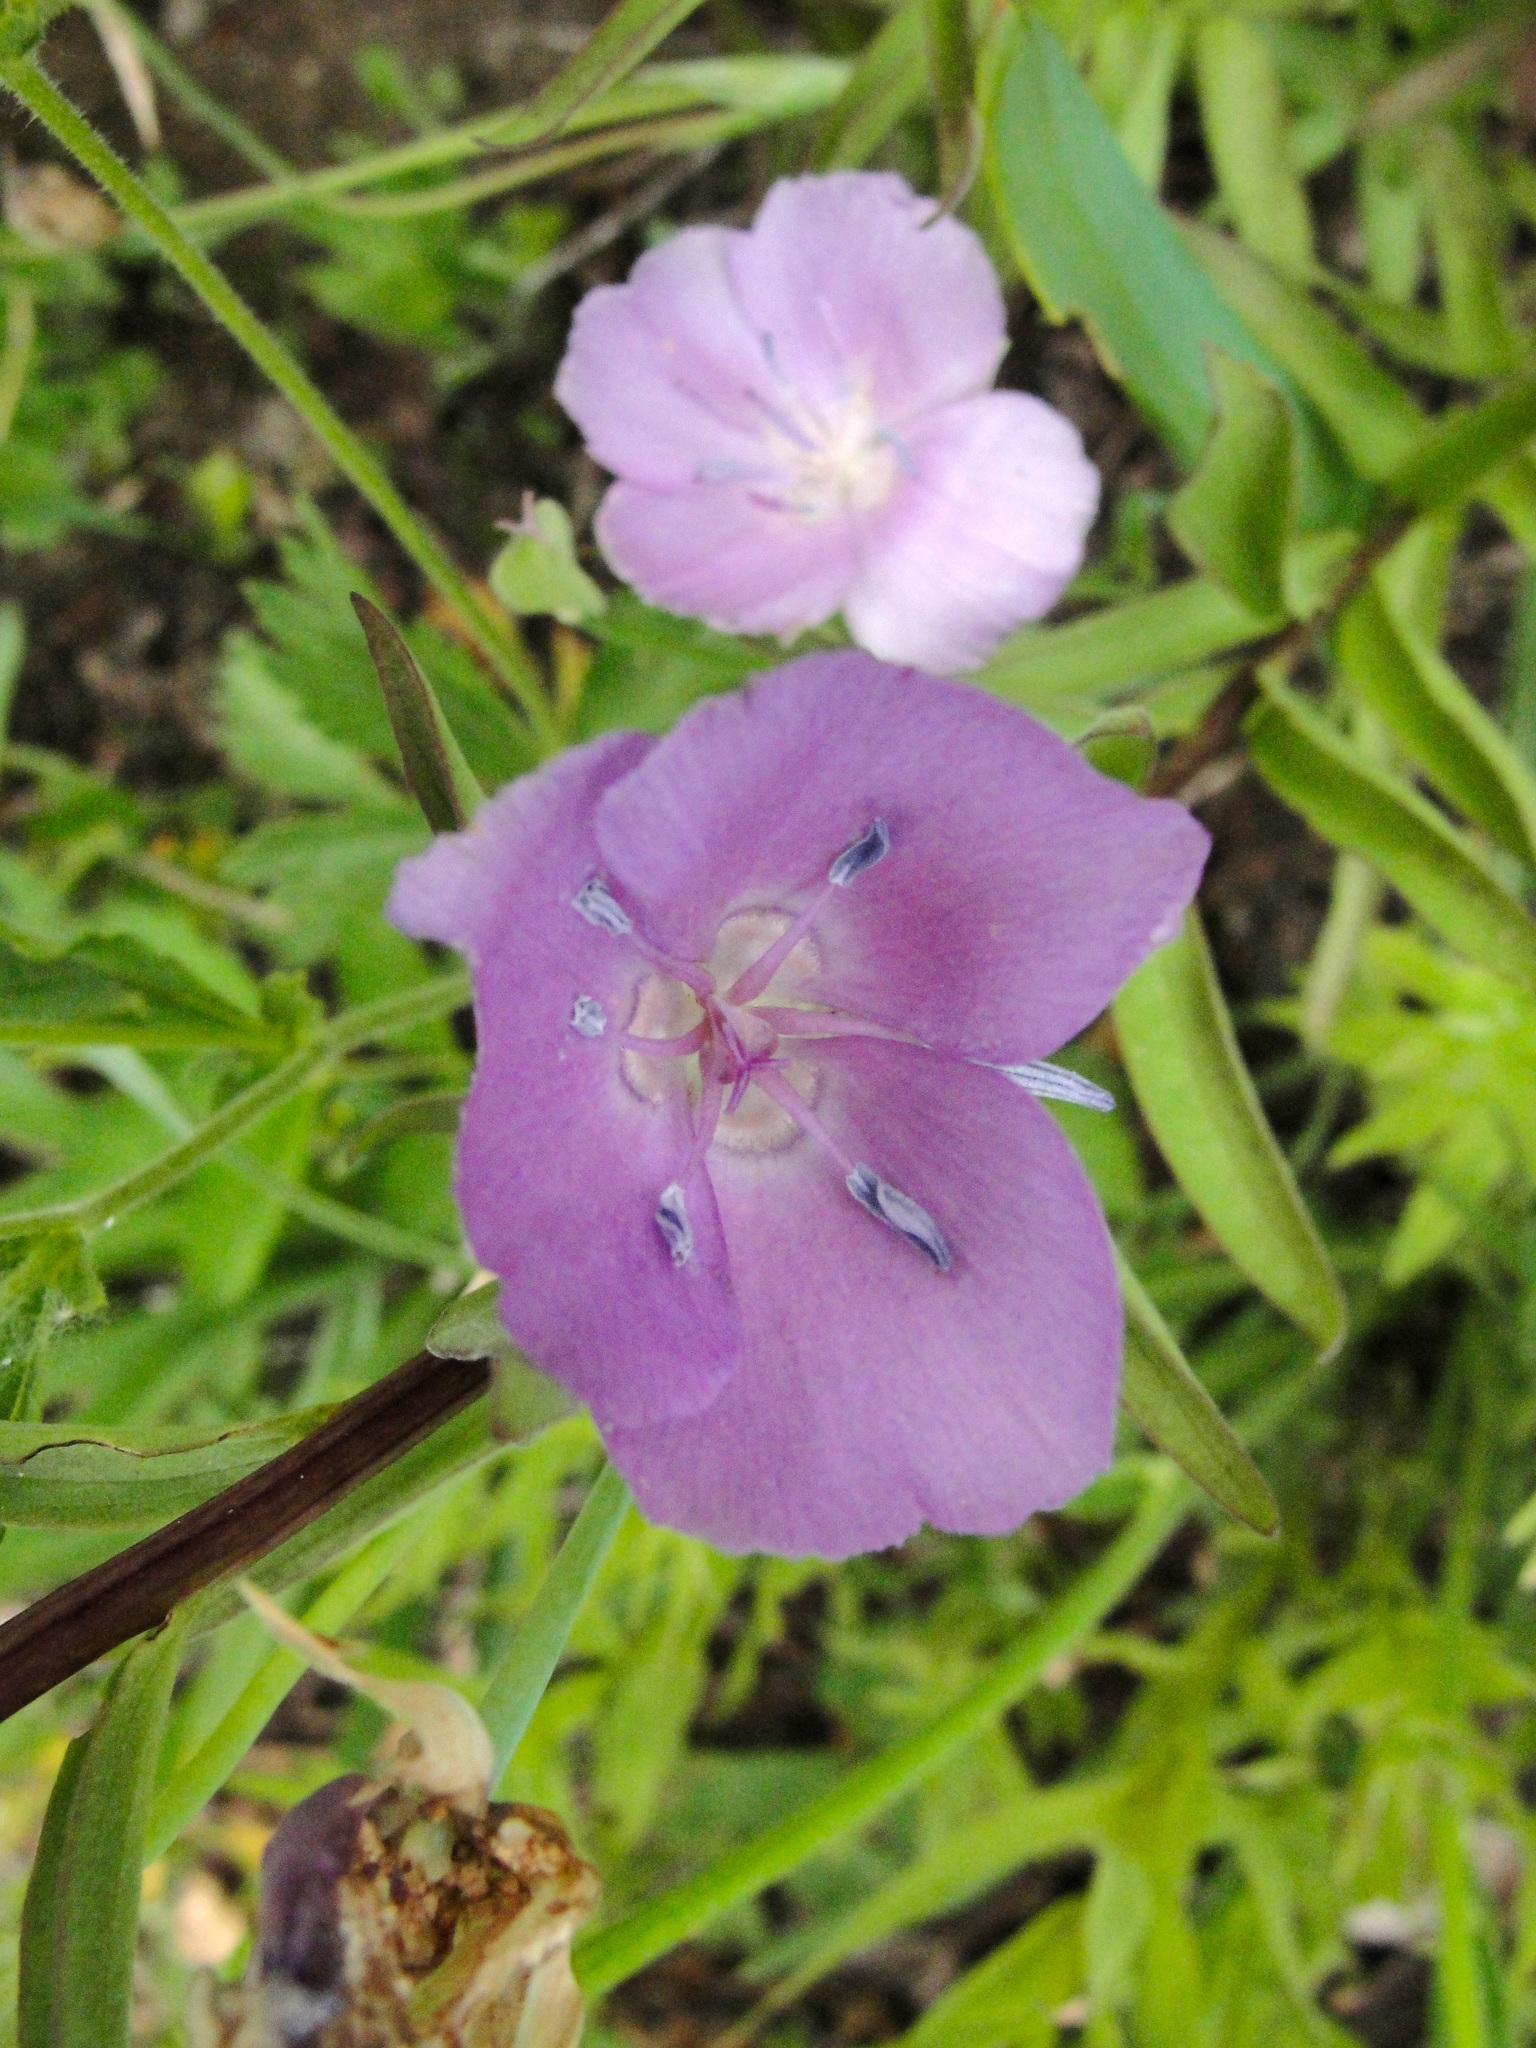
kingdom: Plantae
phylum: Tracheophyta
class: Liliopsida
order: Liliales
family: Liliaceae
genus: Calochortus
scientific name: Calochortus nudus
